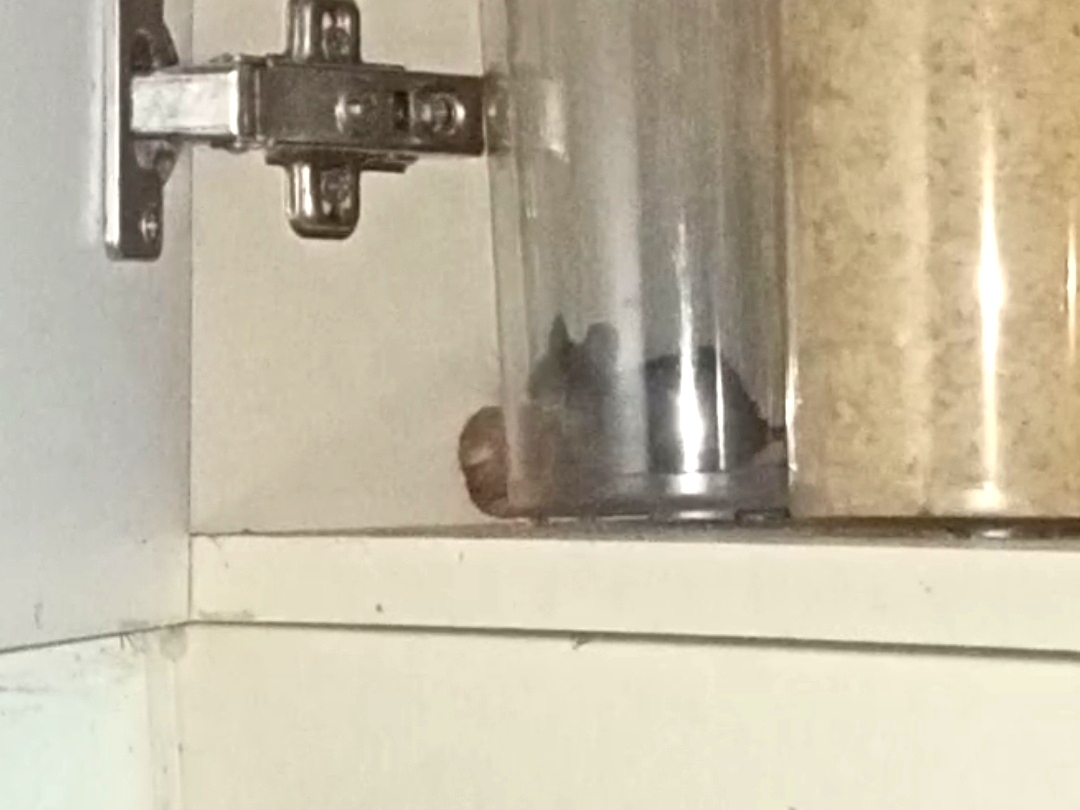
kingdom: Animalia
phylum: Chordata
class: Mammalia
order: Rodentia
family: Muridae
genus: Mus
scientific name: Mus musculus
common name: House mouse
